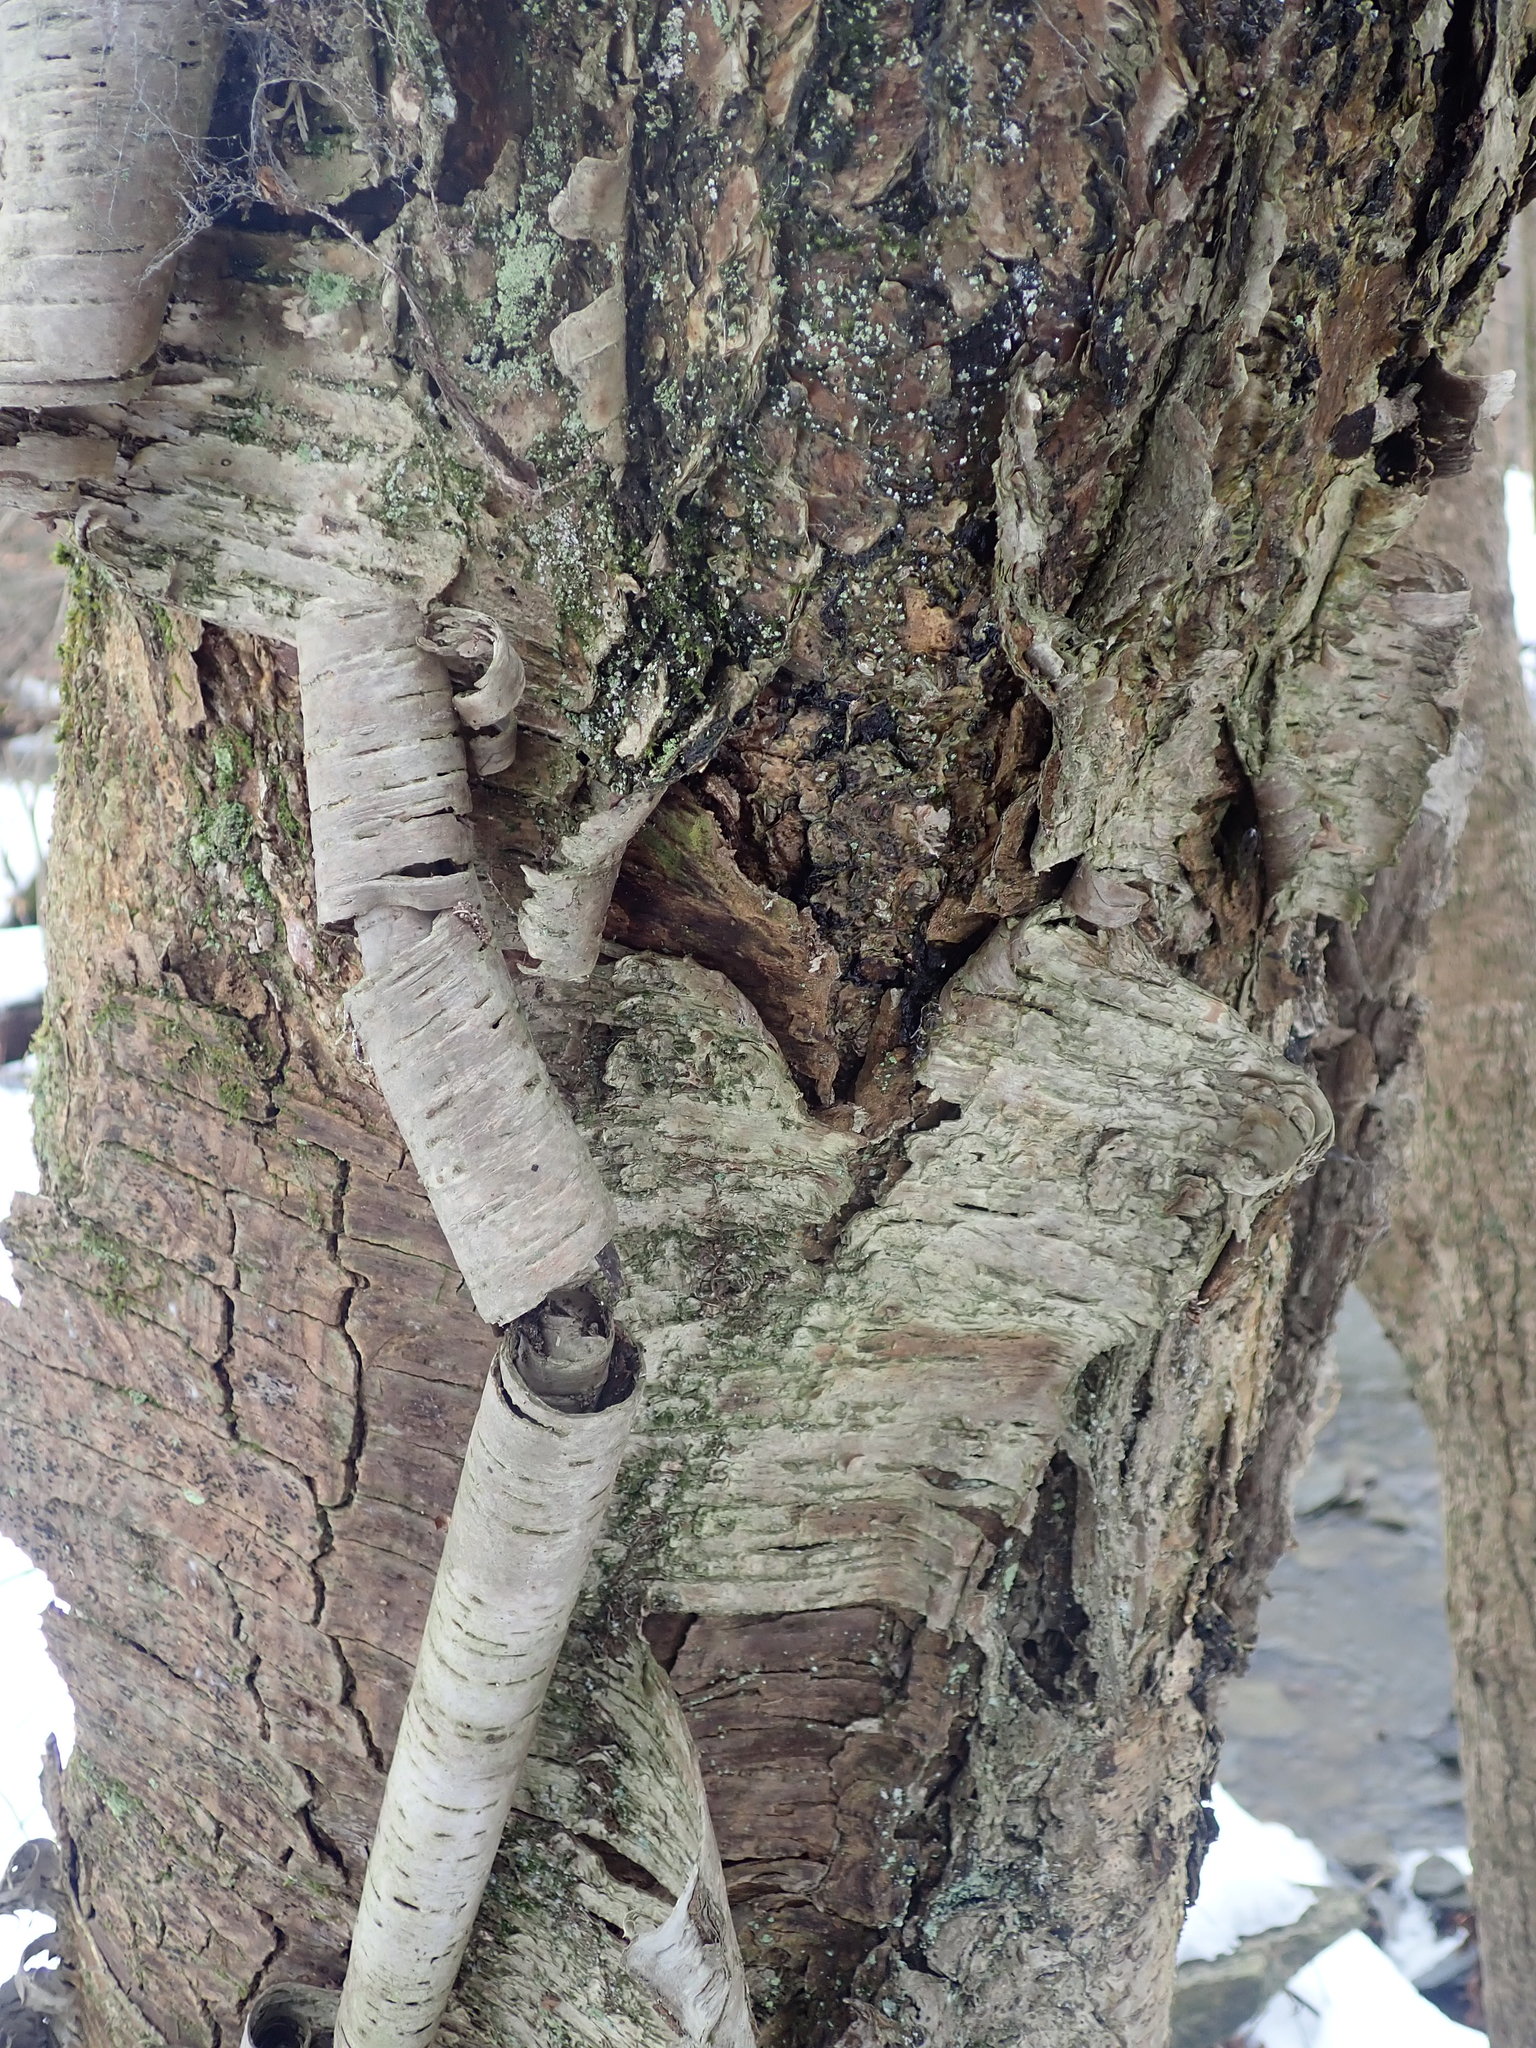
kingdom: Plantae
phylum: Tracheophyta
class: Magnoliopsida
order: Fagales
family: Betulaceae
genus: Betula
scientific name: Betula alleghaniensis
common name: Yellow birch
